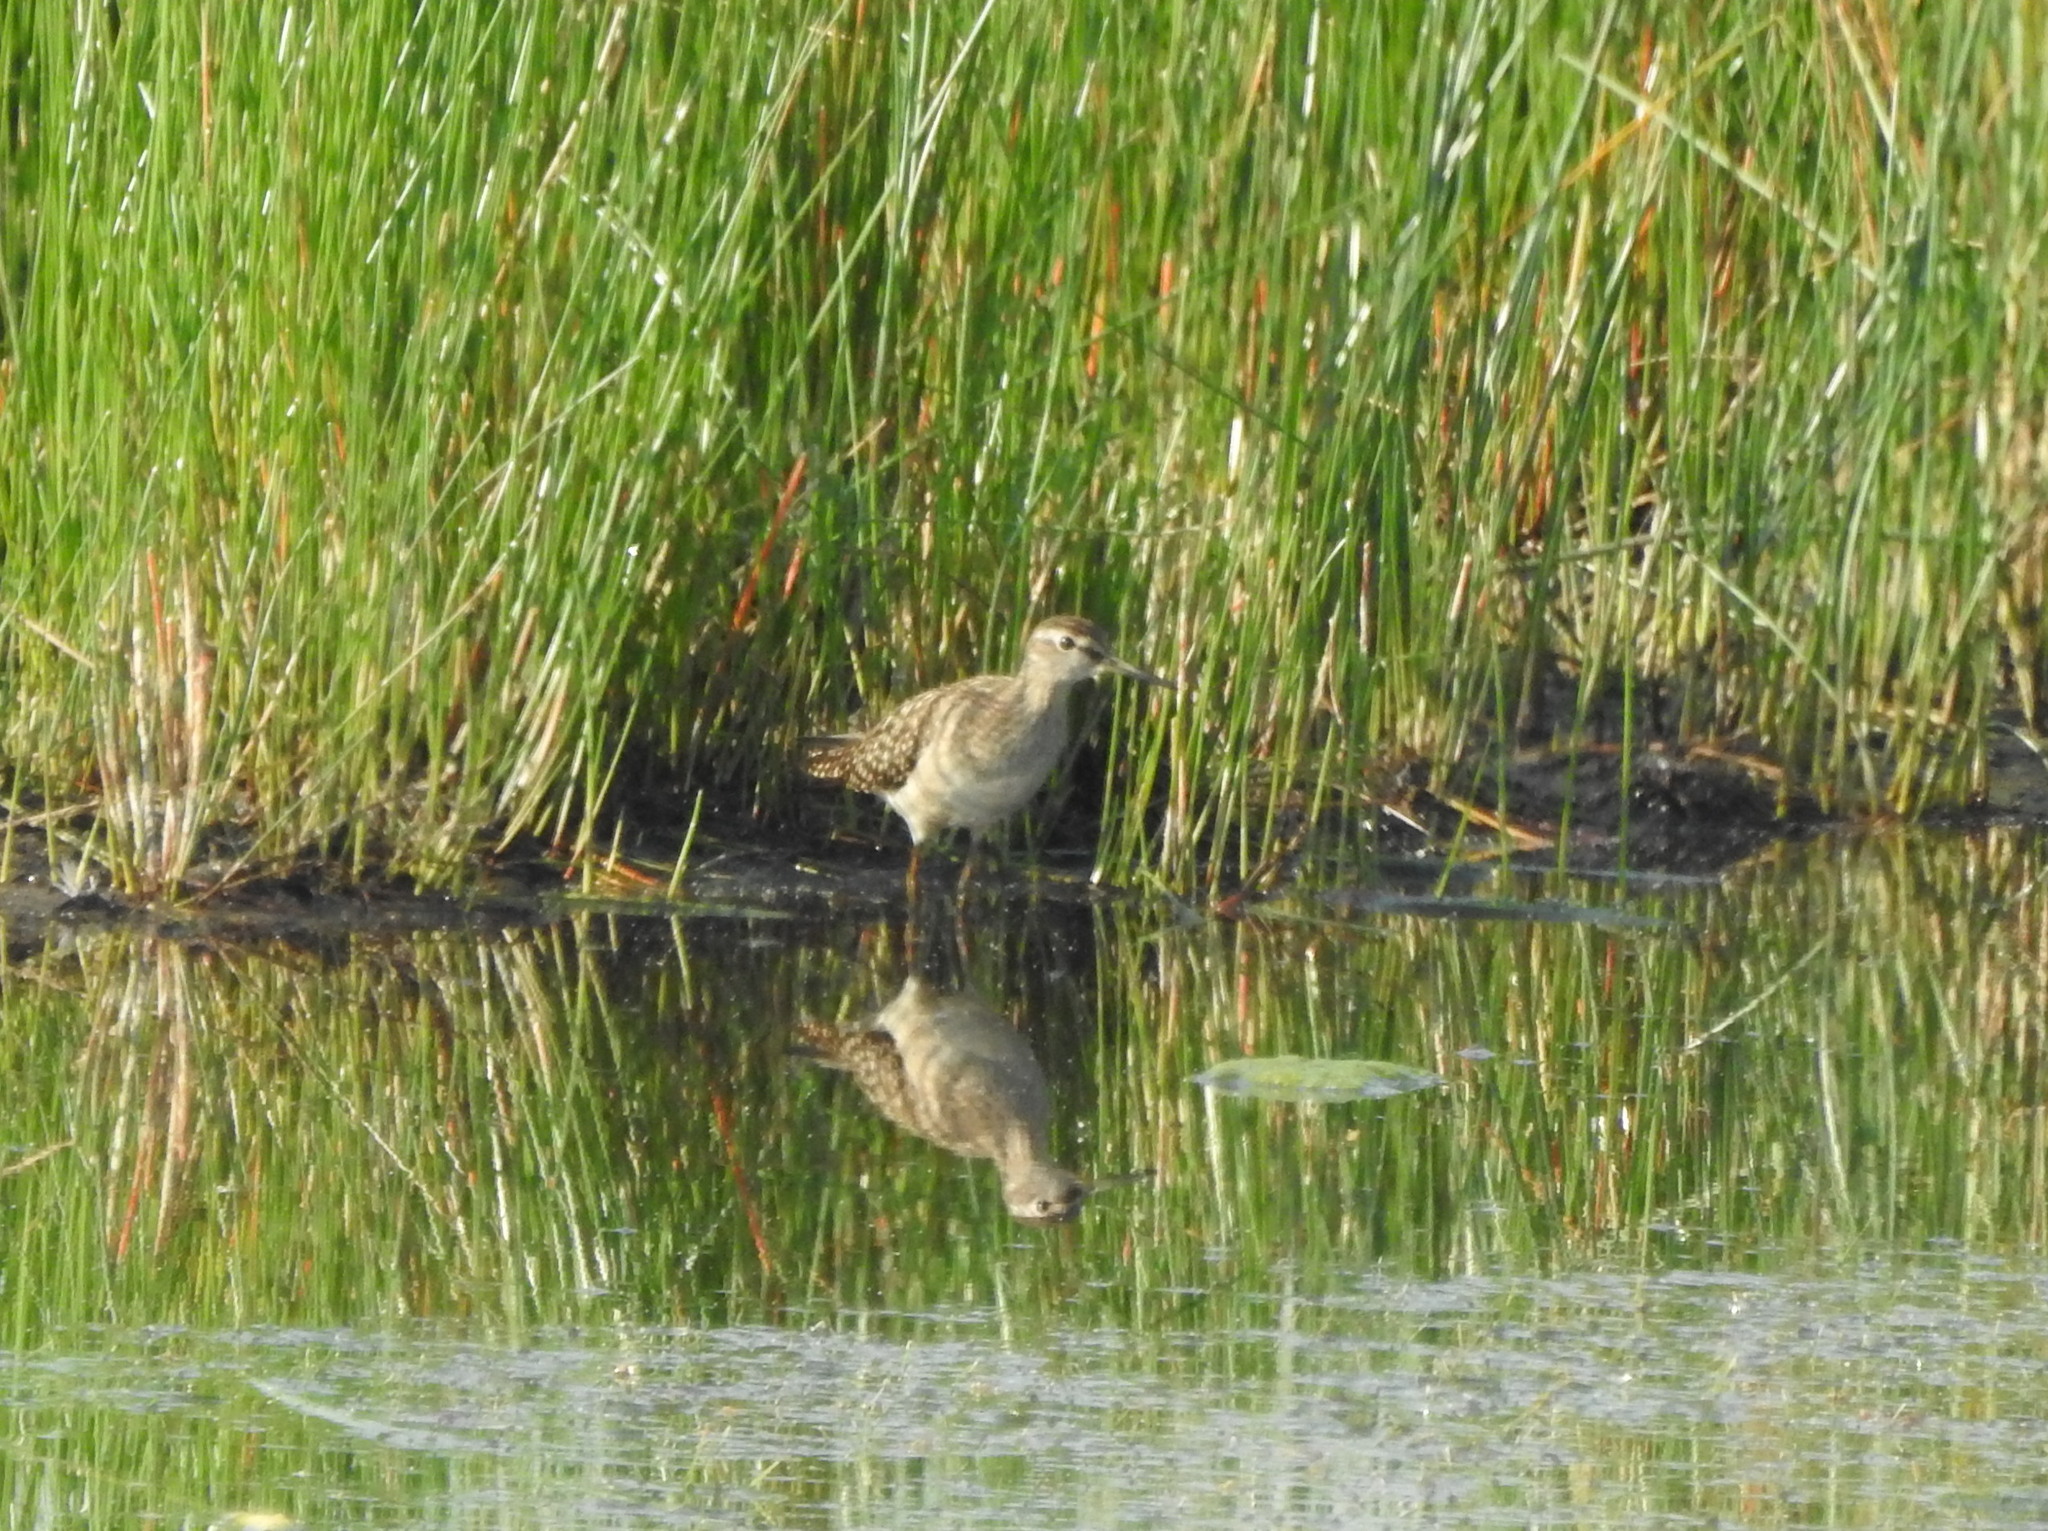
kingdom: Animalia
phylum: Chordata
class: Aves
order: Charadriiformes
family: Scolopacidae
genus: Tringa
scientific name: Tringa glareola
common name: Wood sandpiper
